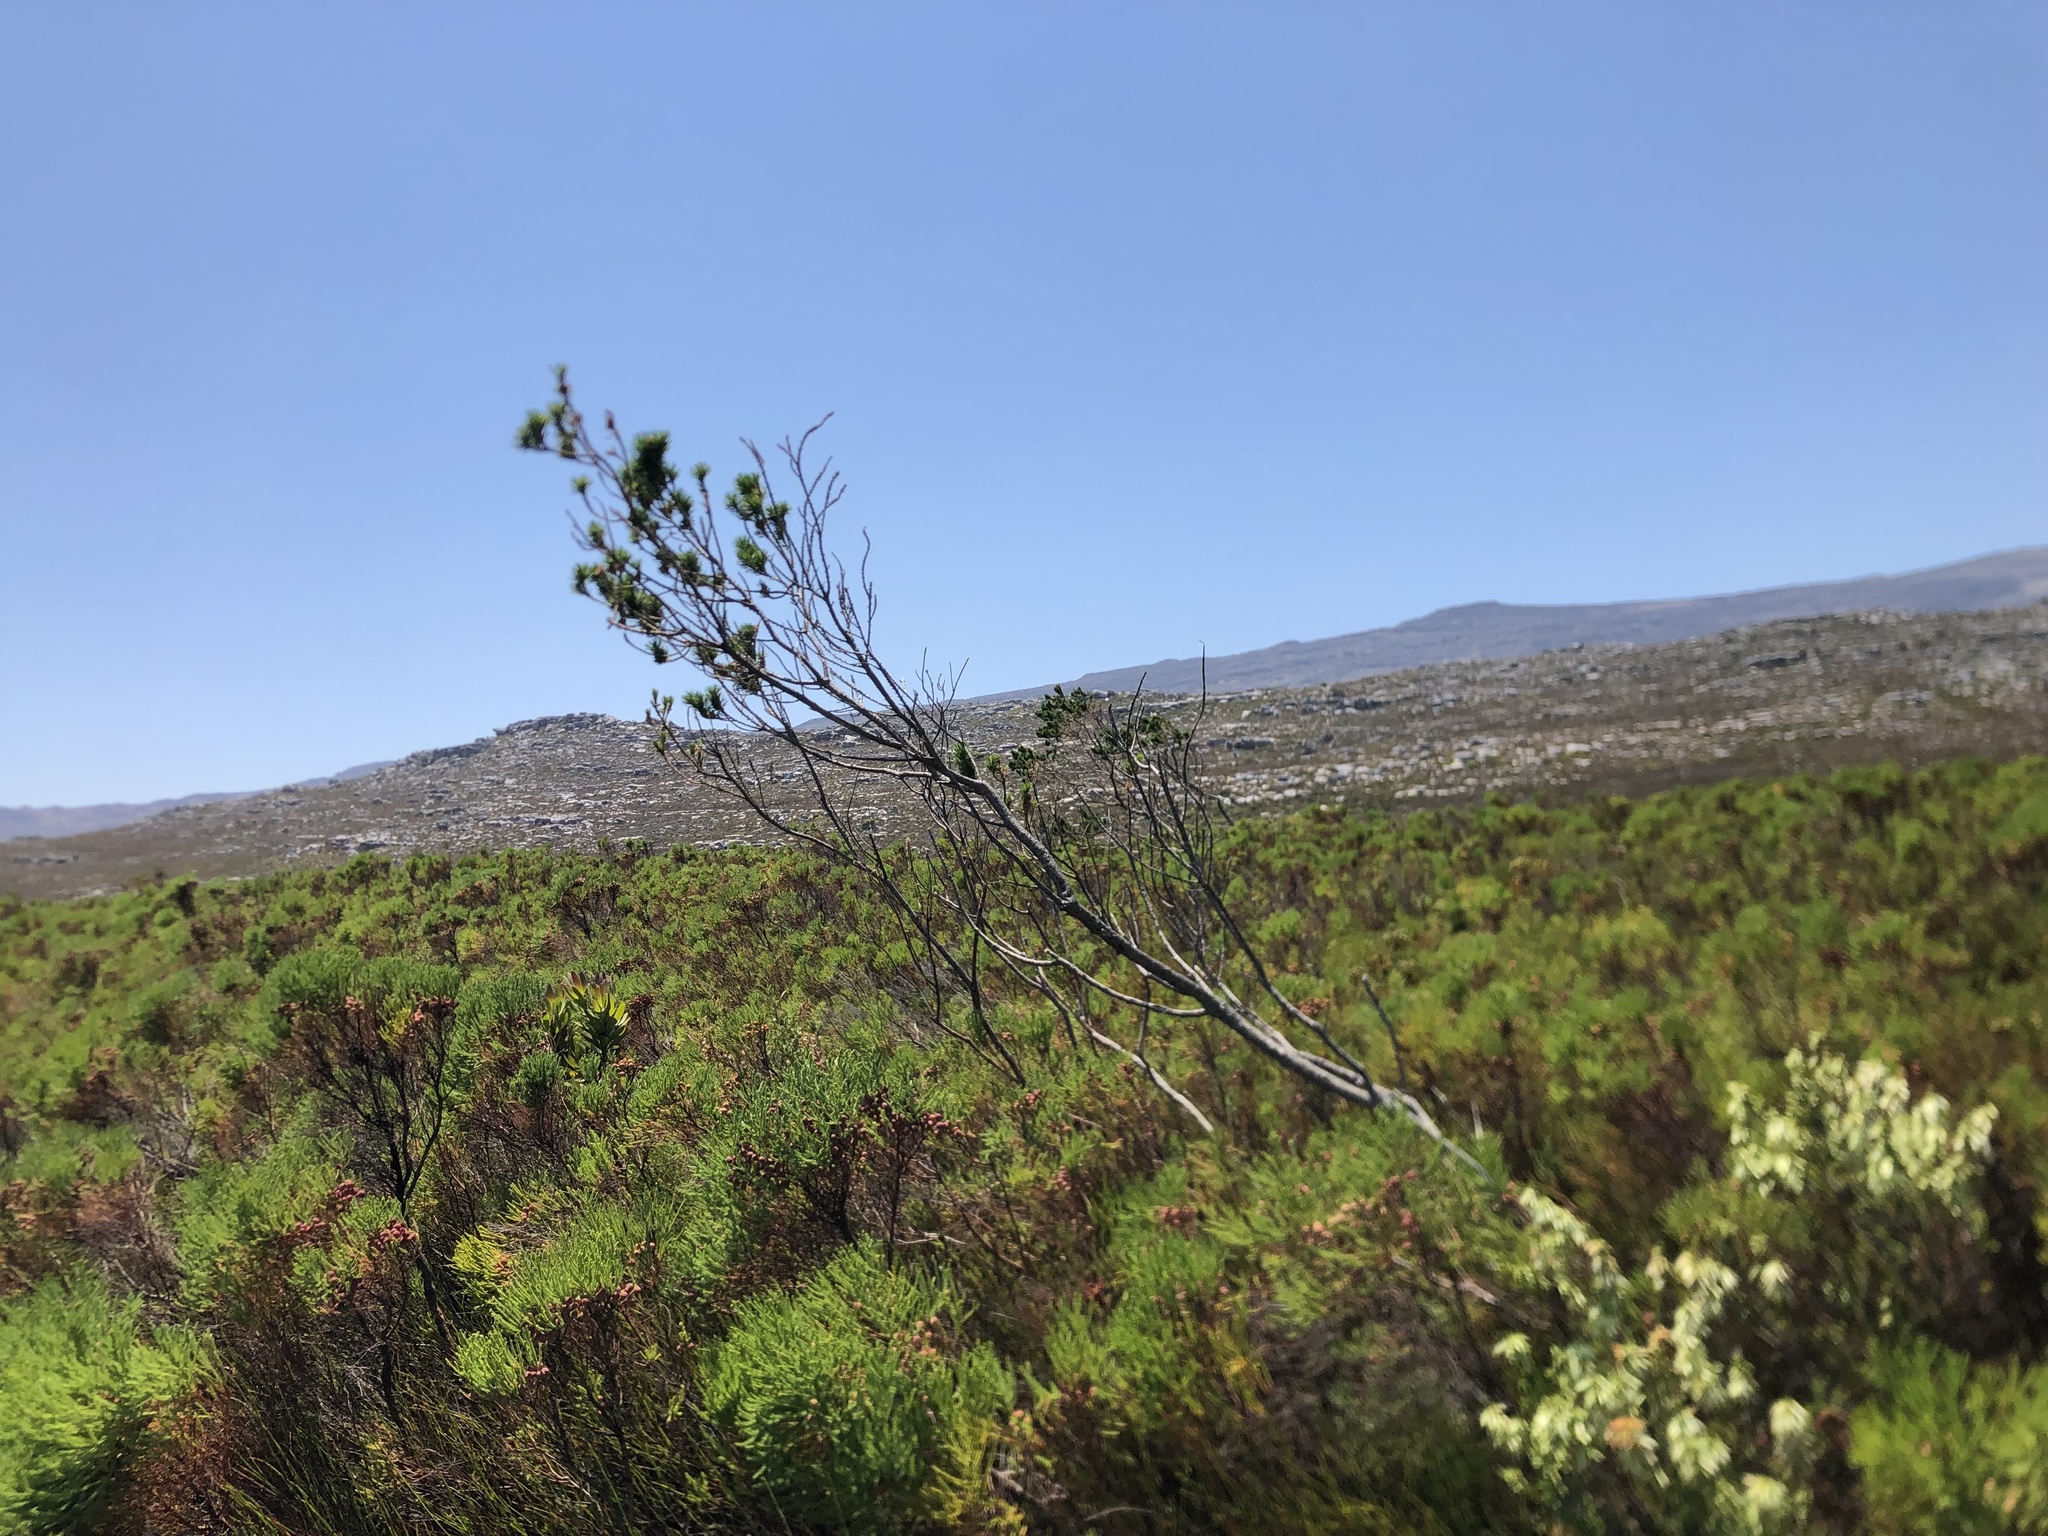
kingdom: Plantae
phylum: Tracheophyta
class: Magnoliopsida
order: Fabales
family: Fabaceae
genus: Psoralea
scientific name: Psoralea pinnata
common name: African scurfpea
